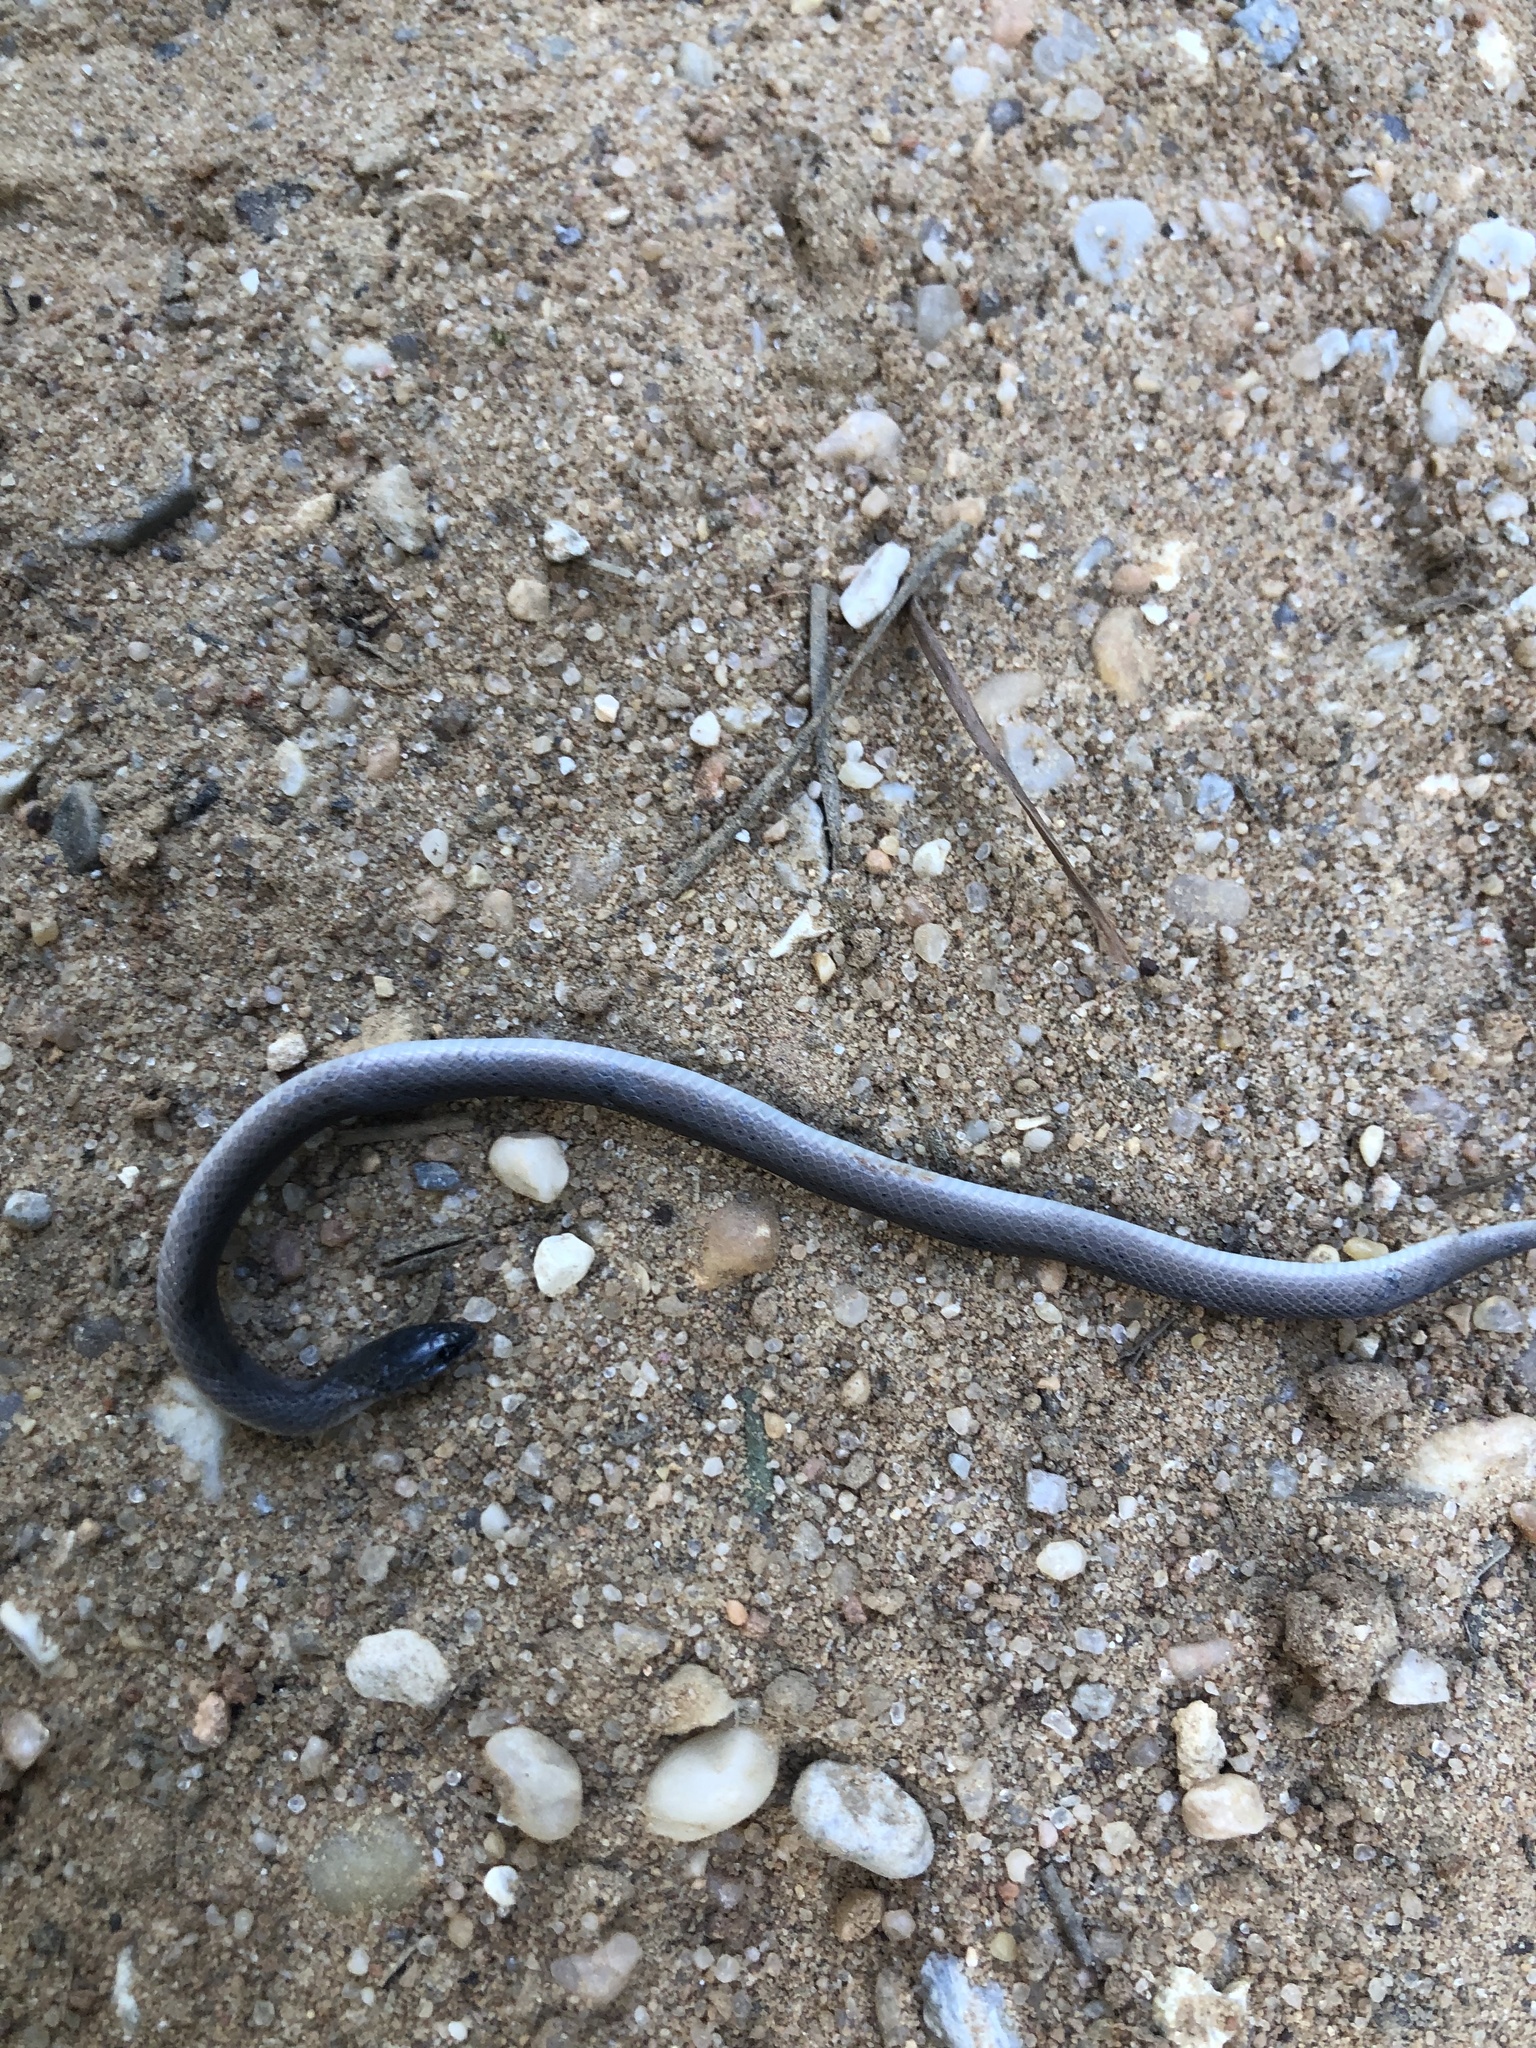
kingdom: Animalia
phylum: Chordata
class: Squamata
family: Colubridae
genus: Virginia
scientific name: Virginia valeriae
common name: Smooth earth snake
